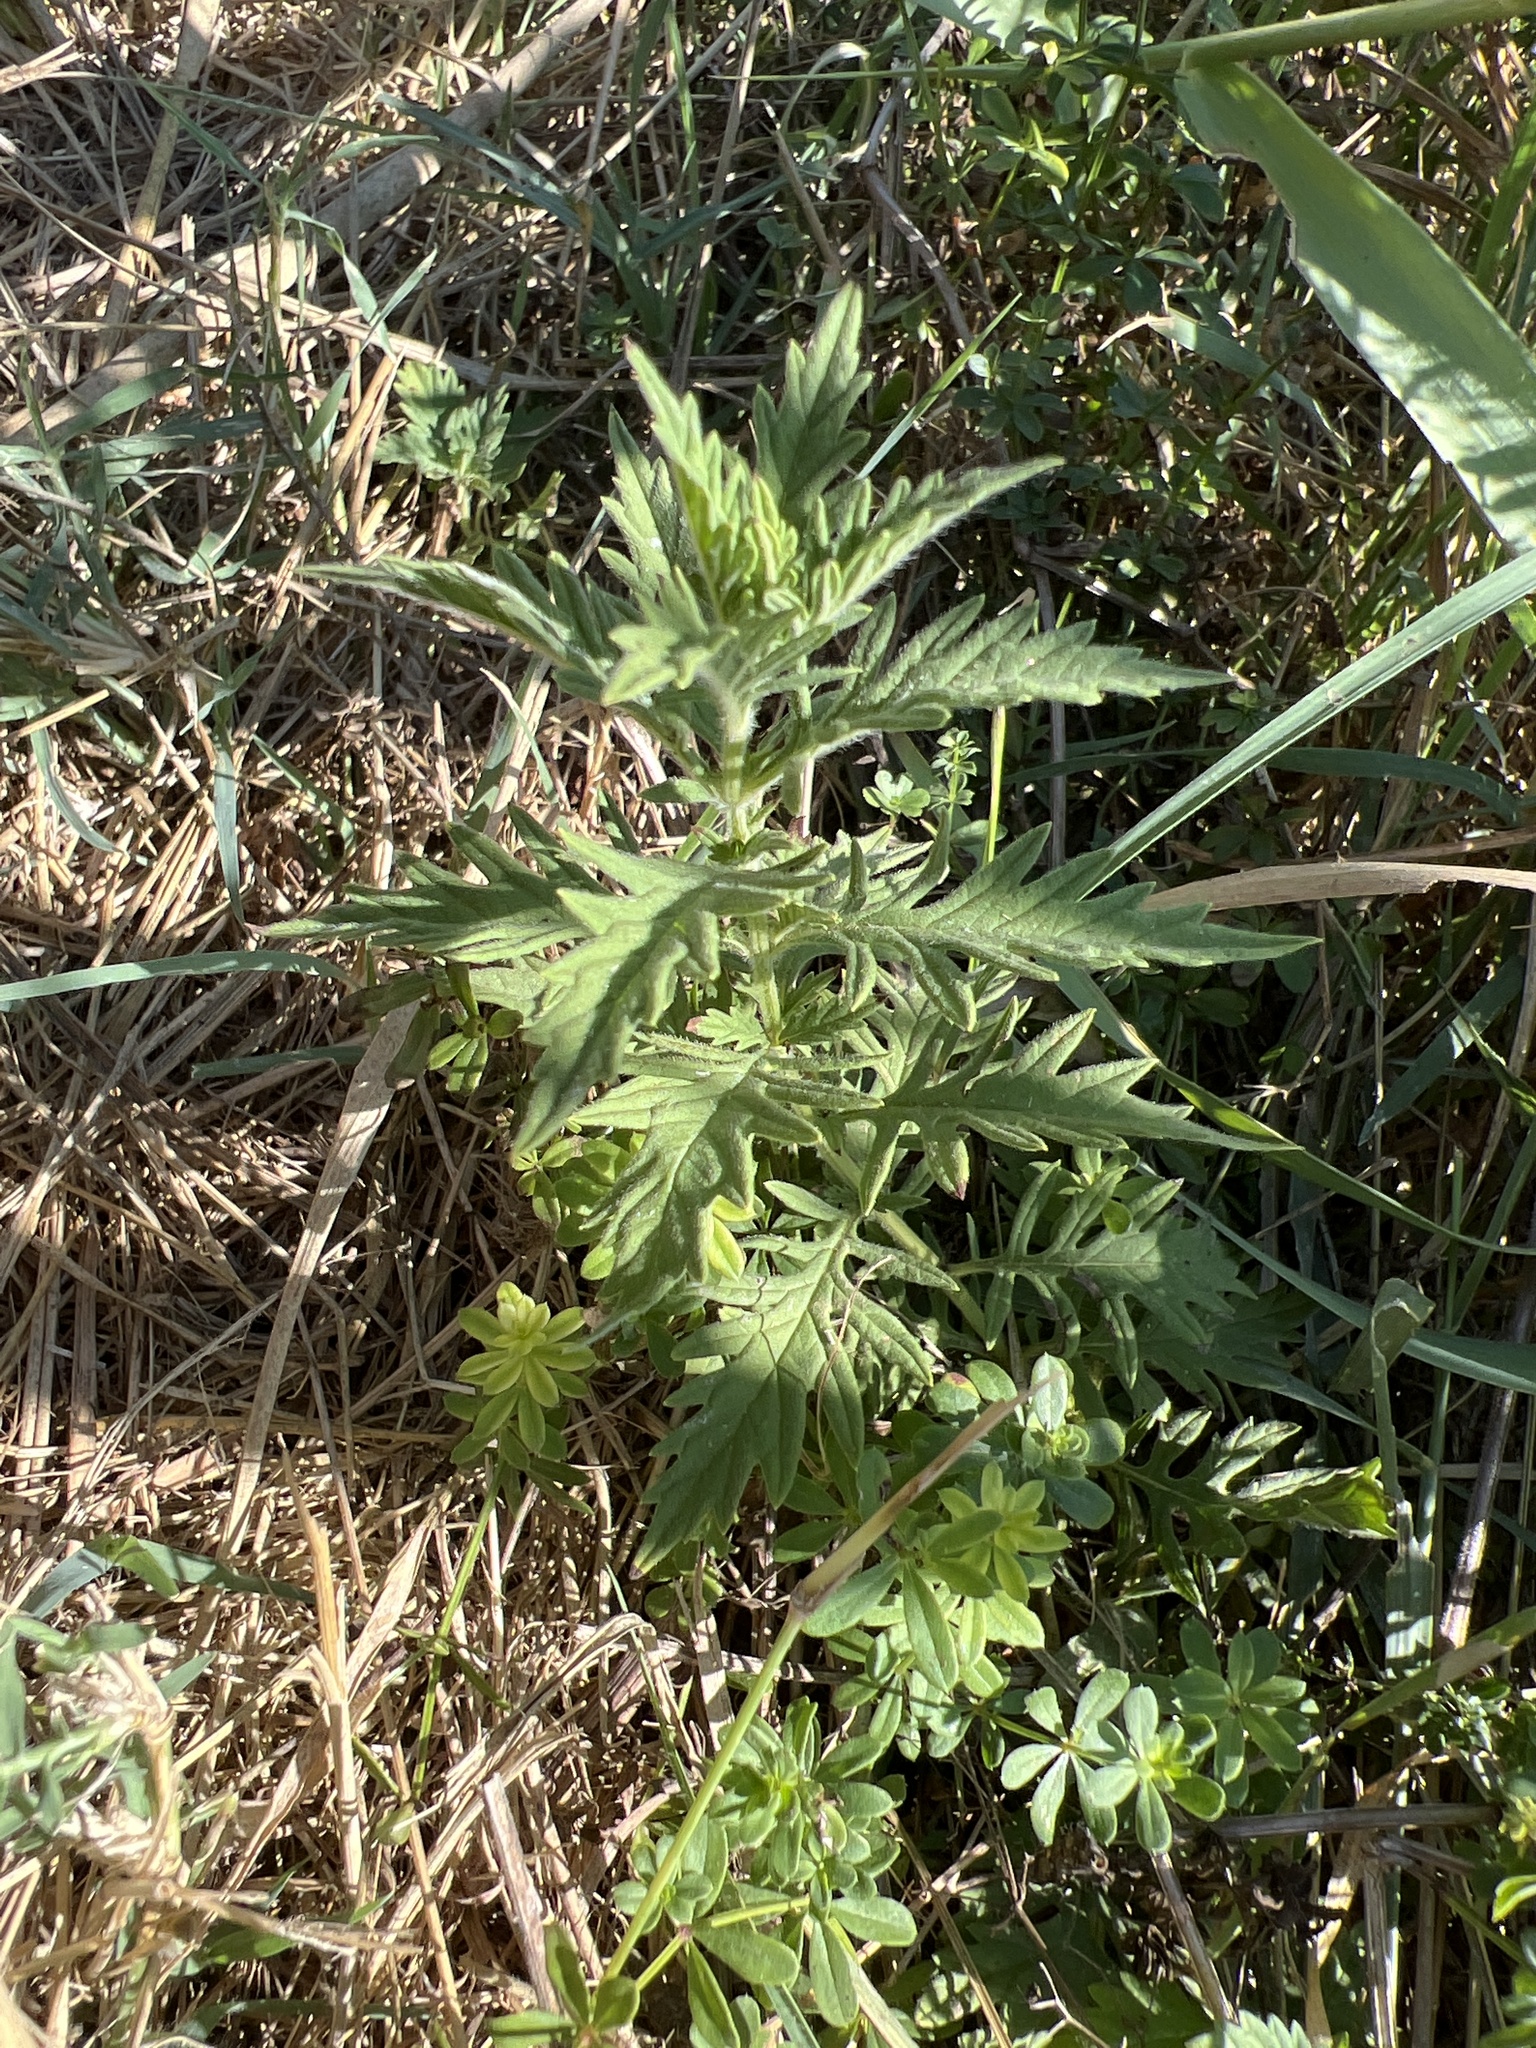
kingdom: Plantae
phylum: Tracheophyta
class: Magnoliopsida
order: Lamiales
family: Lamiaceae
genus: Lycopus
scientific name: Lycopus exaltatus
